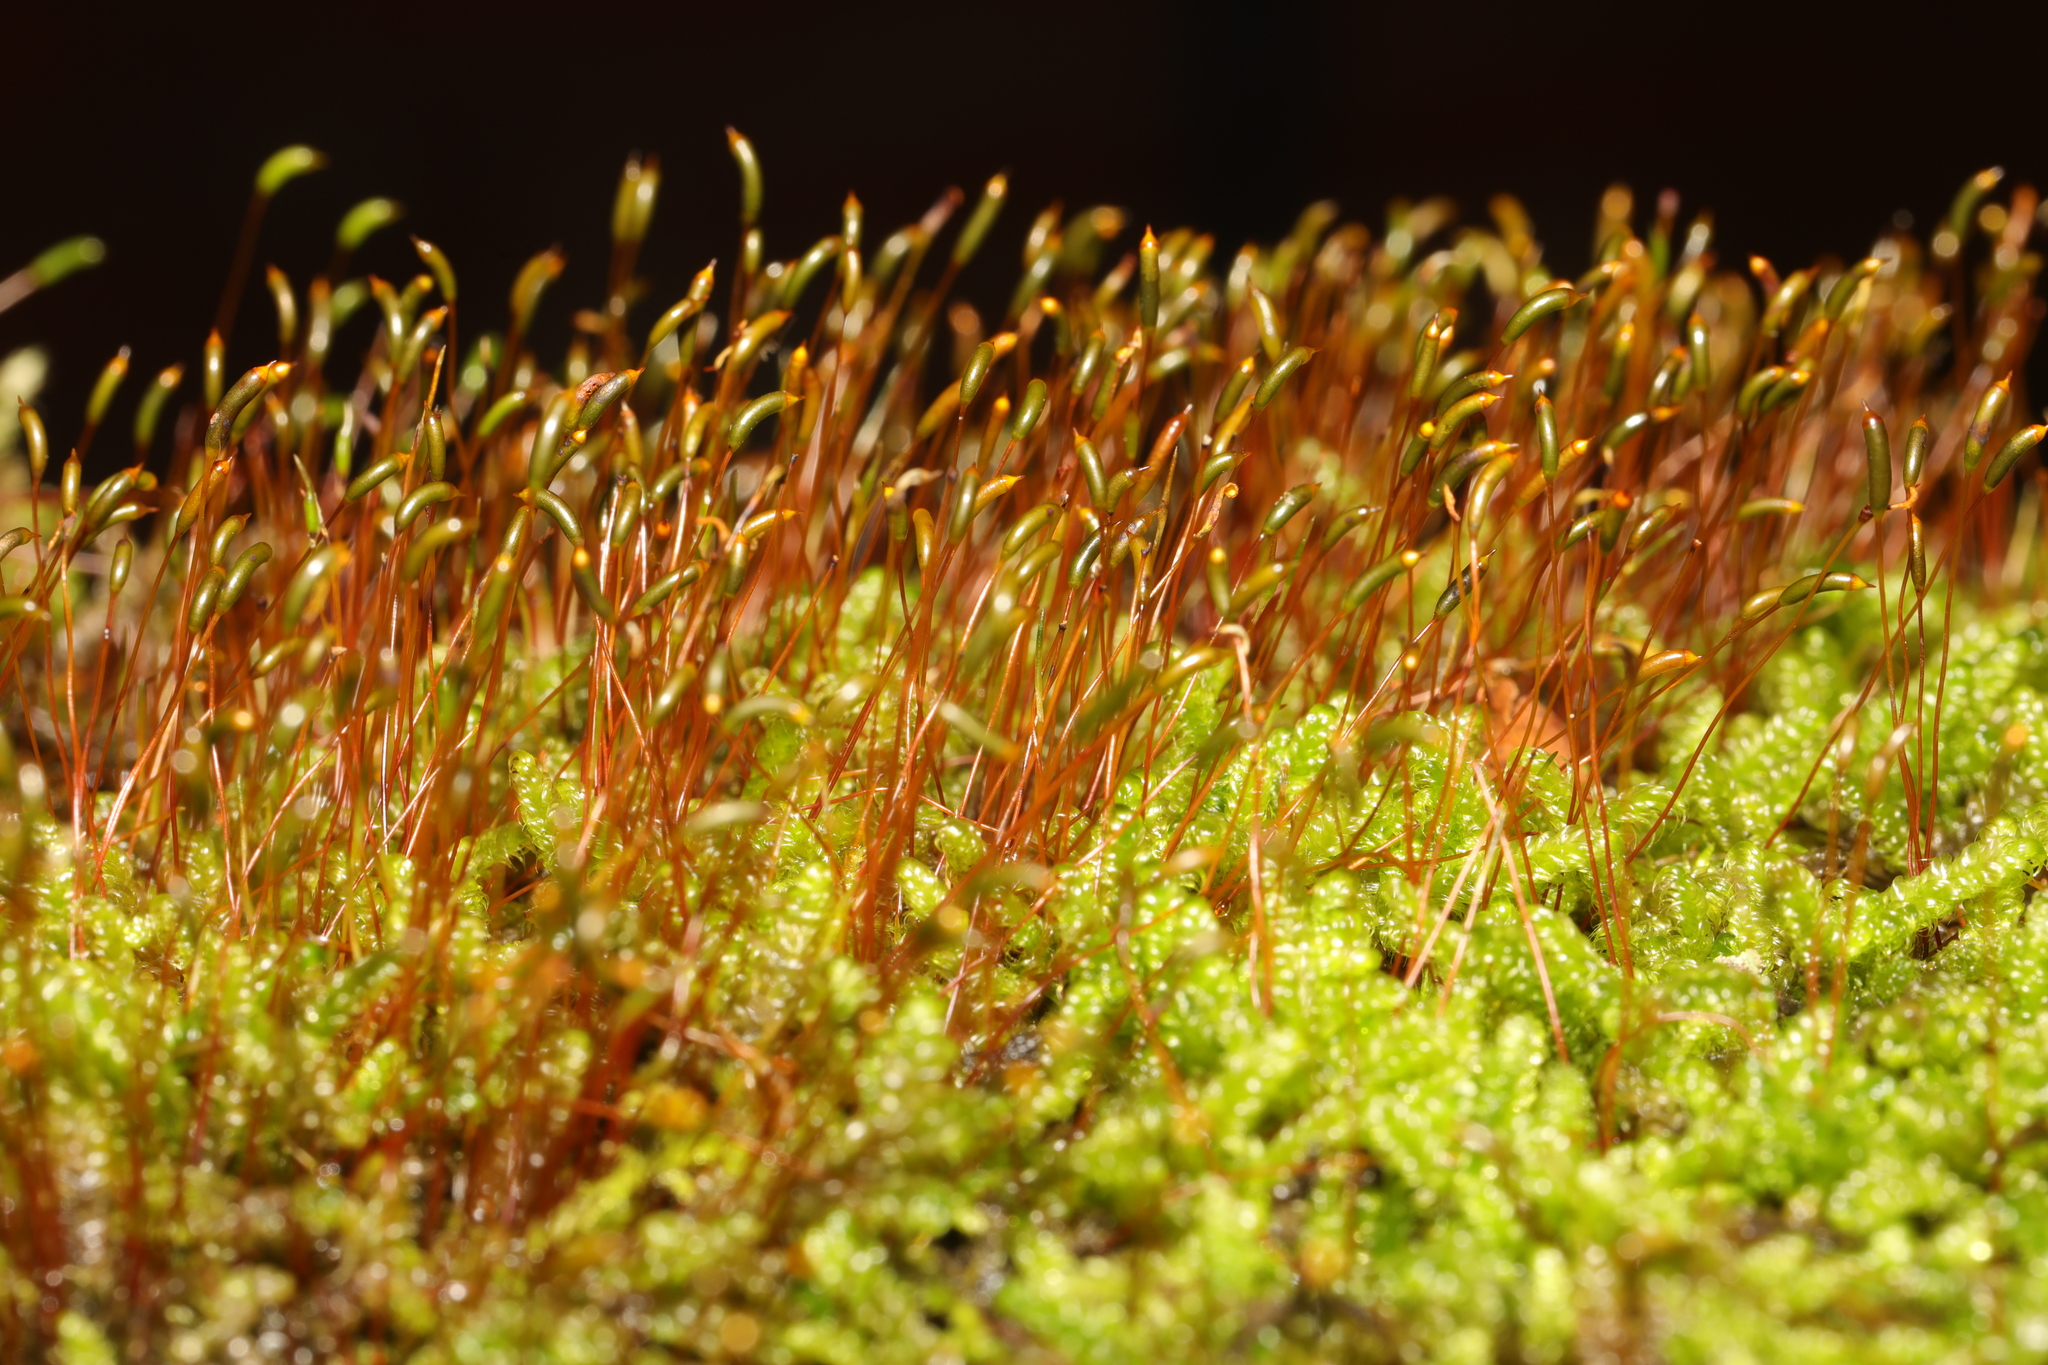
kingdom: Plantae
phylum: Bryophyta
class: Bryopsida
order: Hypnales
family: Hypnaceae
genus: Hypnum
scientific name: Hypnum cupressiforme
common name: Cypress-leaved plait-moss
